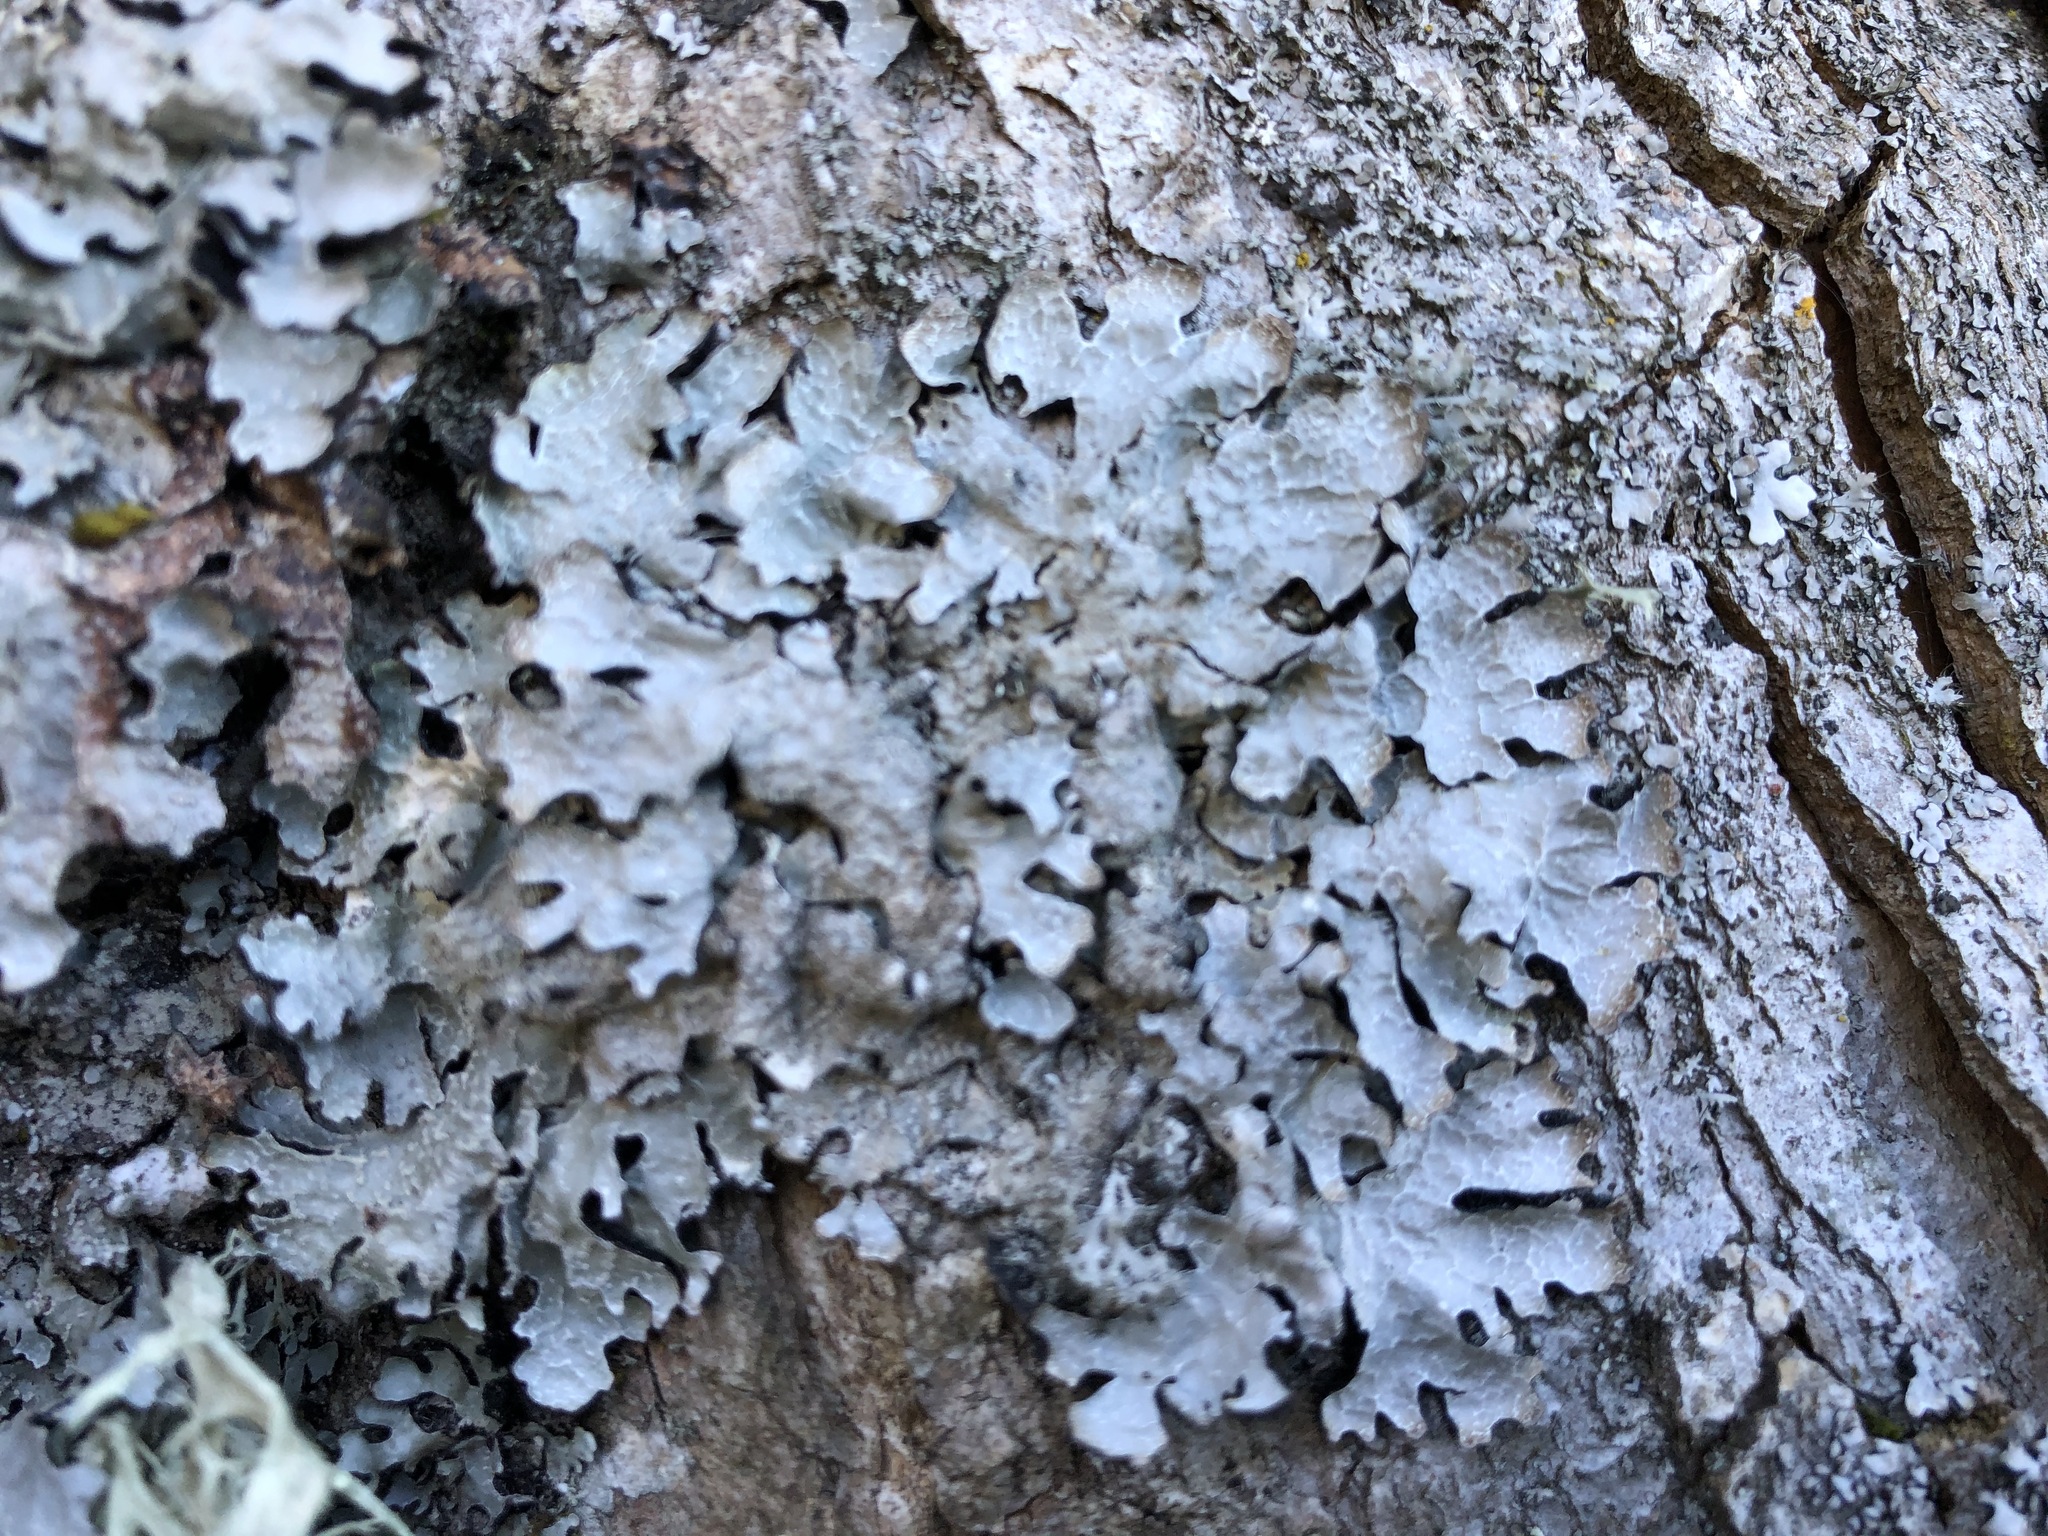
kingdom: Fungi
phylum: Ascomycota
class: Lecanoromycetes
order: Lecanorales
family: Parmeliaceae
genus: Parmelia
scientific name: Parmelia sulcata
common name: Netted shield lichen
